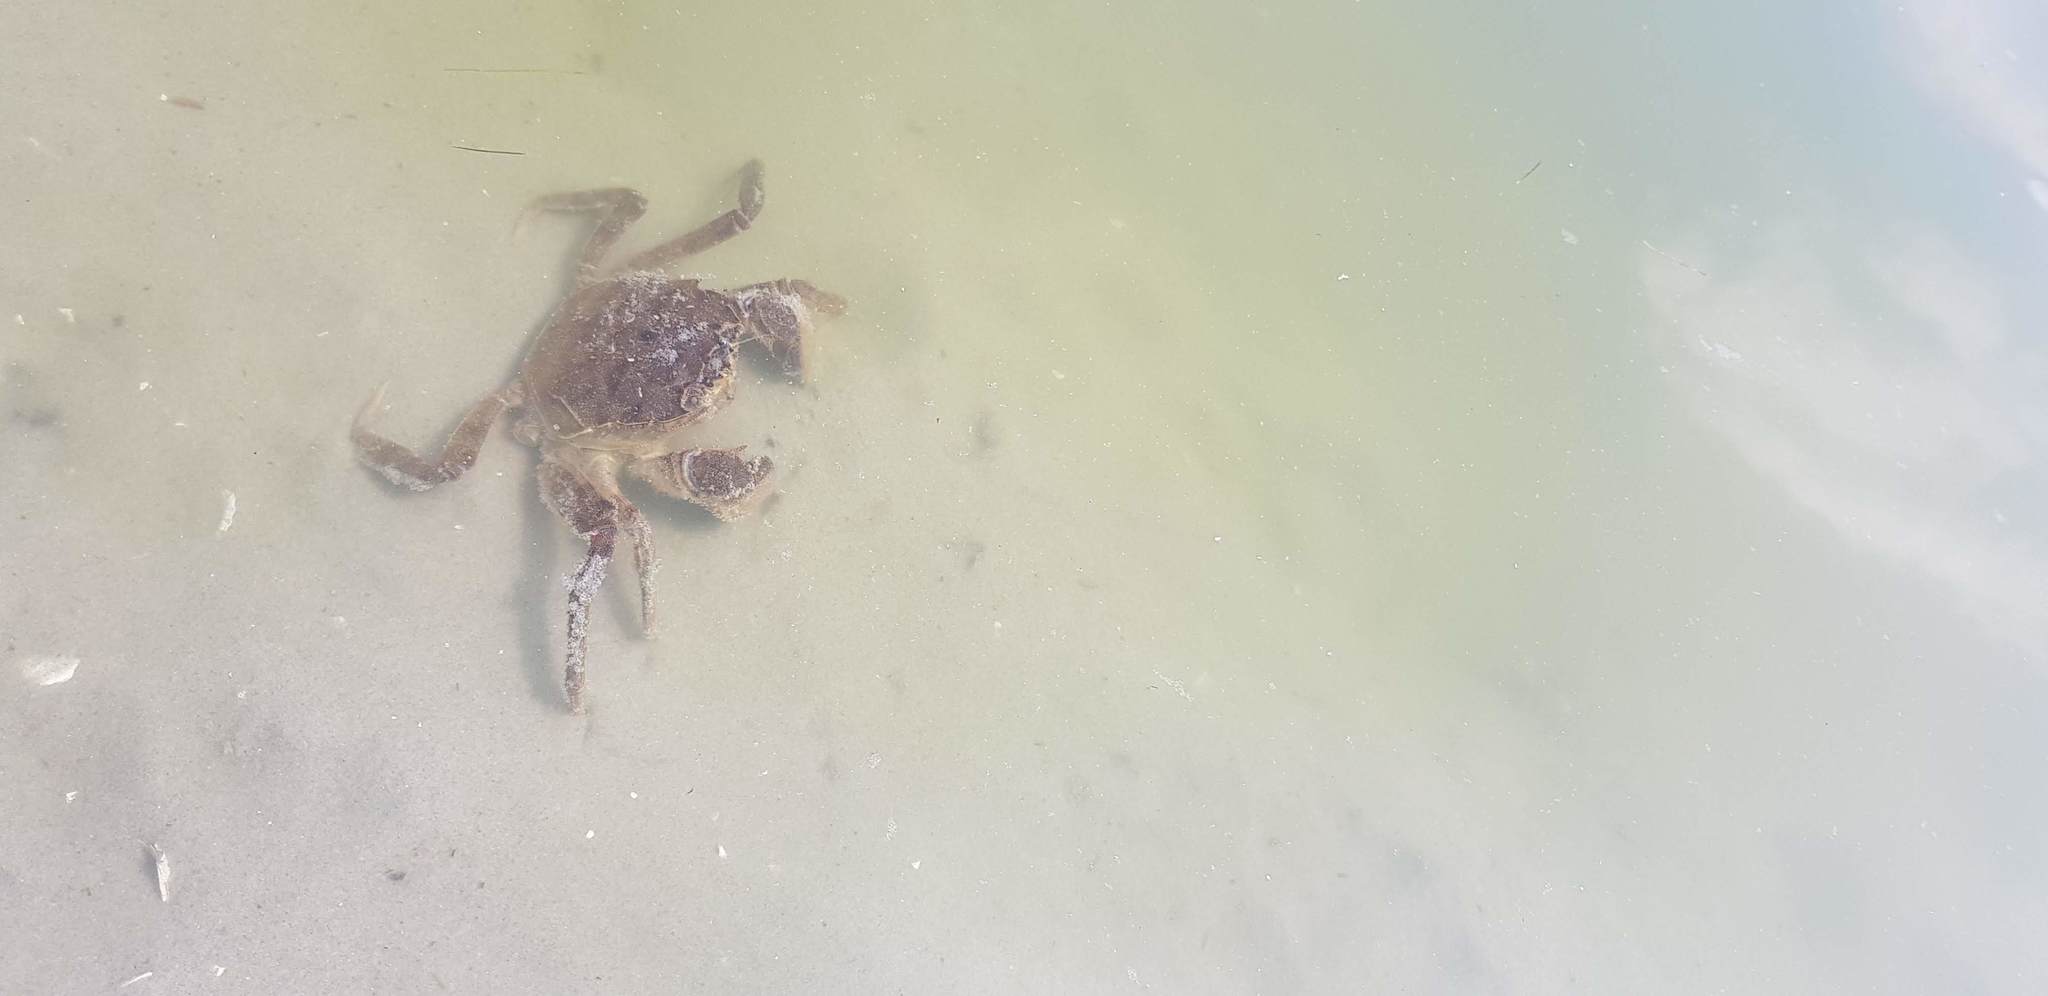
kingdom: Animalia
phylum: Arthropoda
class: Malacostraca
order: Decapoda
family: Varunidae
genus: Eriocheir
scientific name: Eriocheir sinensis
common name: Chinese mitten crab
